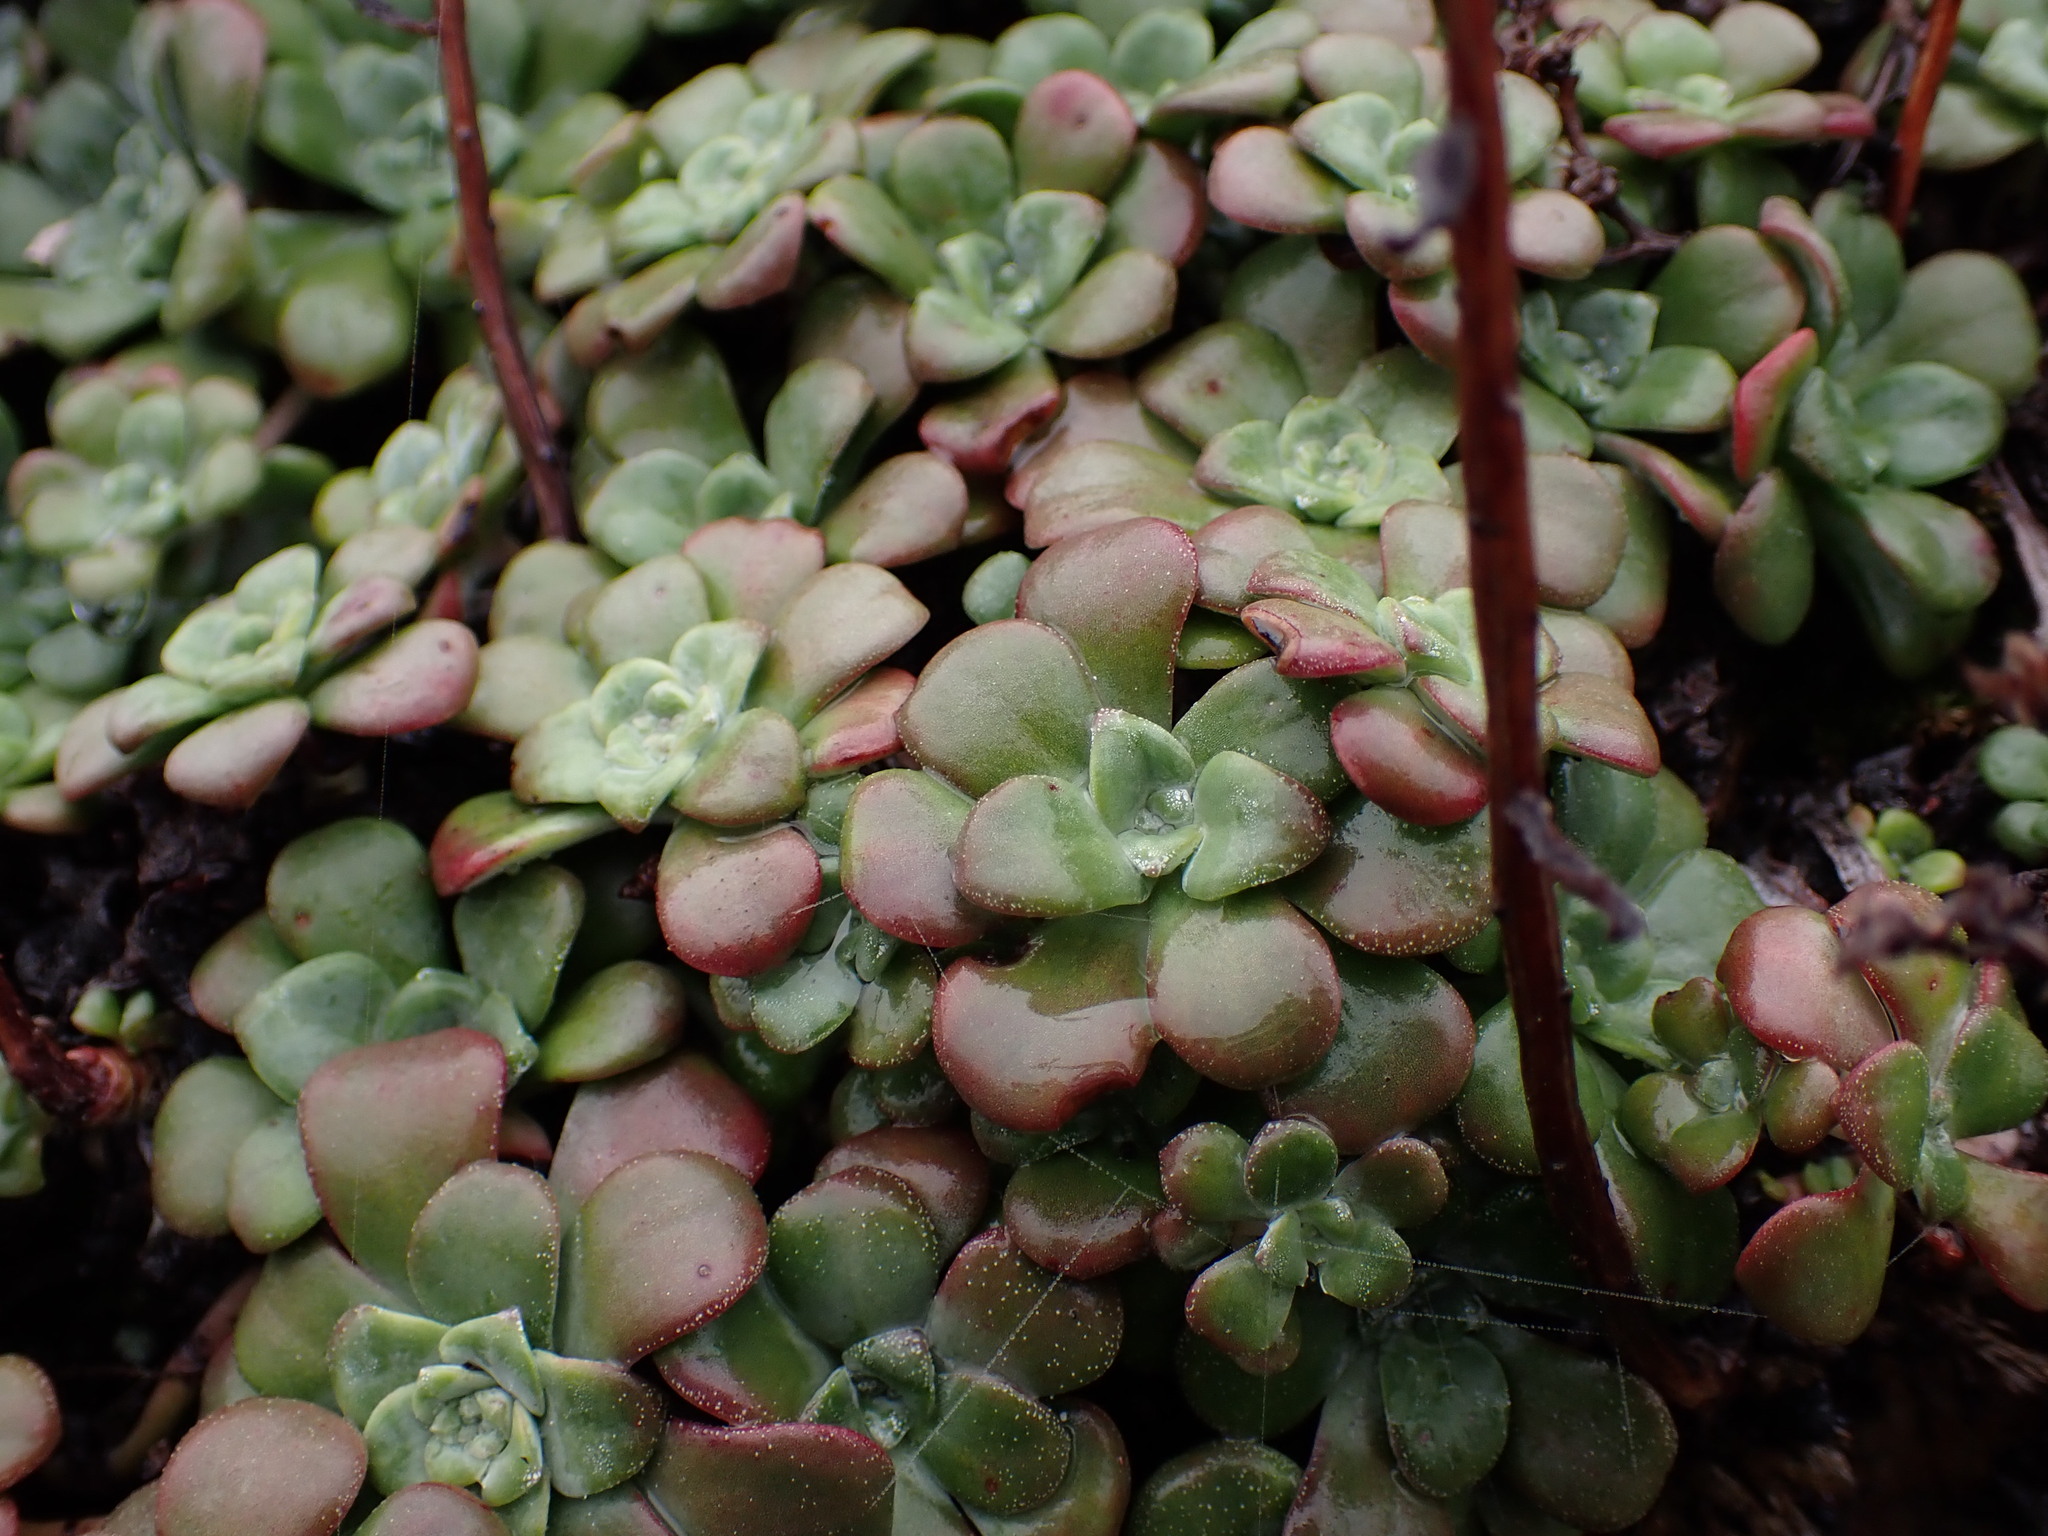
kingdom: Plantae
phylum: Tracheophyta
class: Magnoliopsida
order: Saxifragales
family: Crassulaceae
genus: Sedum
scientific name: Sedum spathulifolium
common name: Colorado stonecrop
